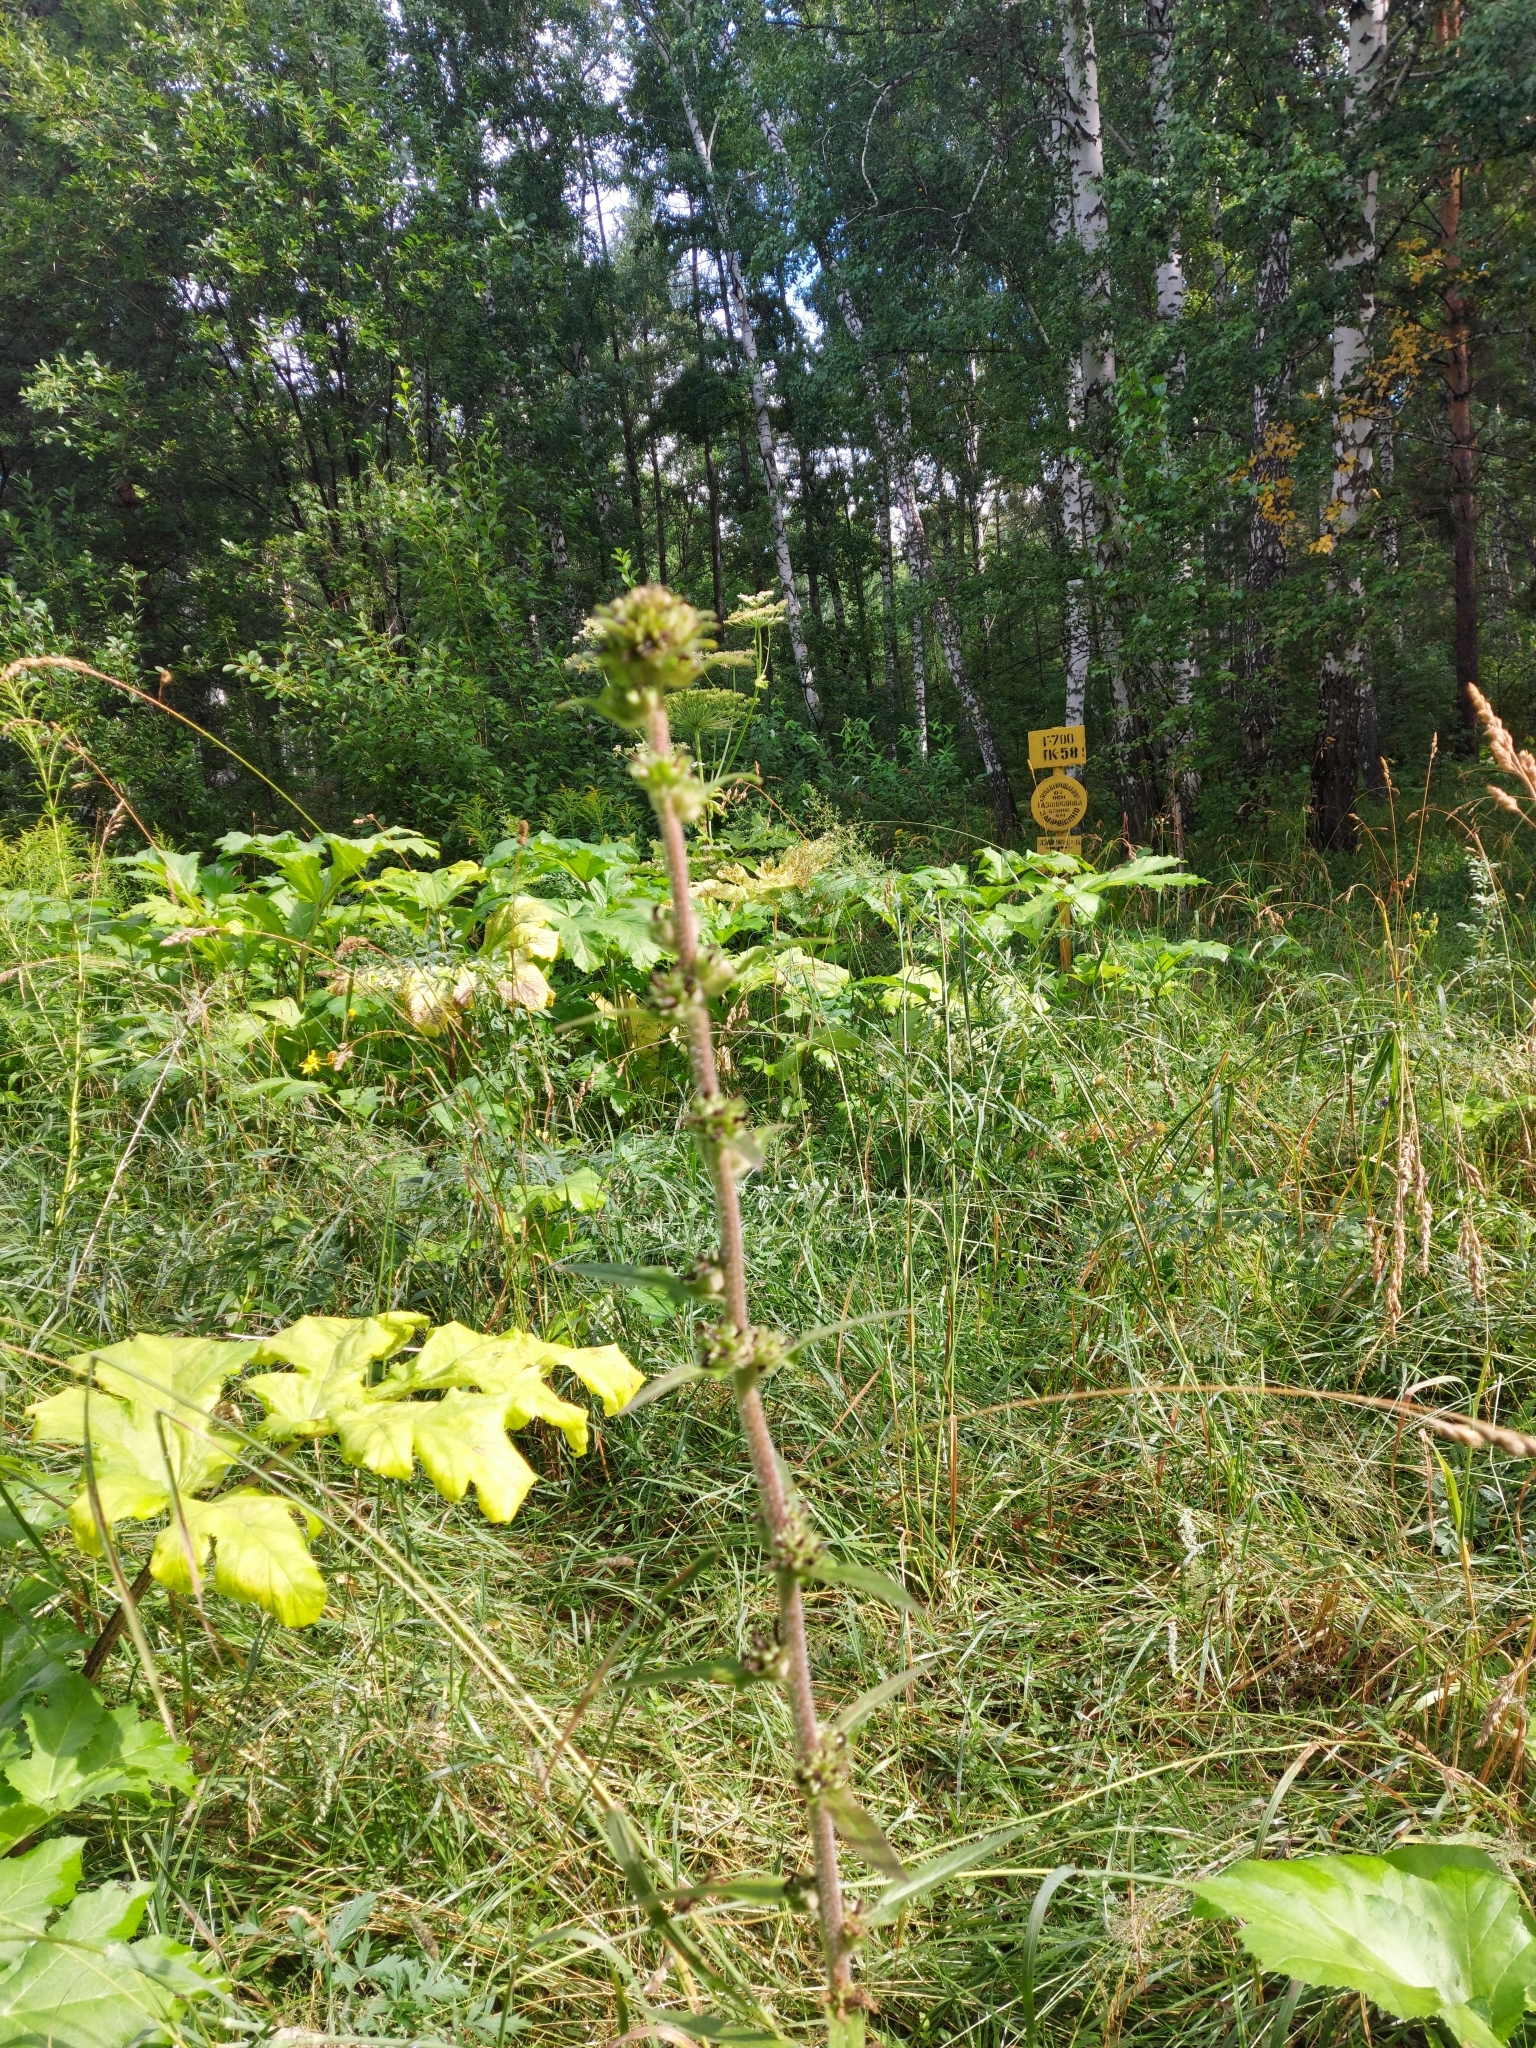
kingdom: Plantae
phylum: Tracheophyta
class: Magnoliopsida
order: Asterales
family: Campanulaceae
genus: Campanula
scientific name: Campanula cervicaria
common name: Bristly bellflower
